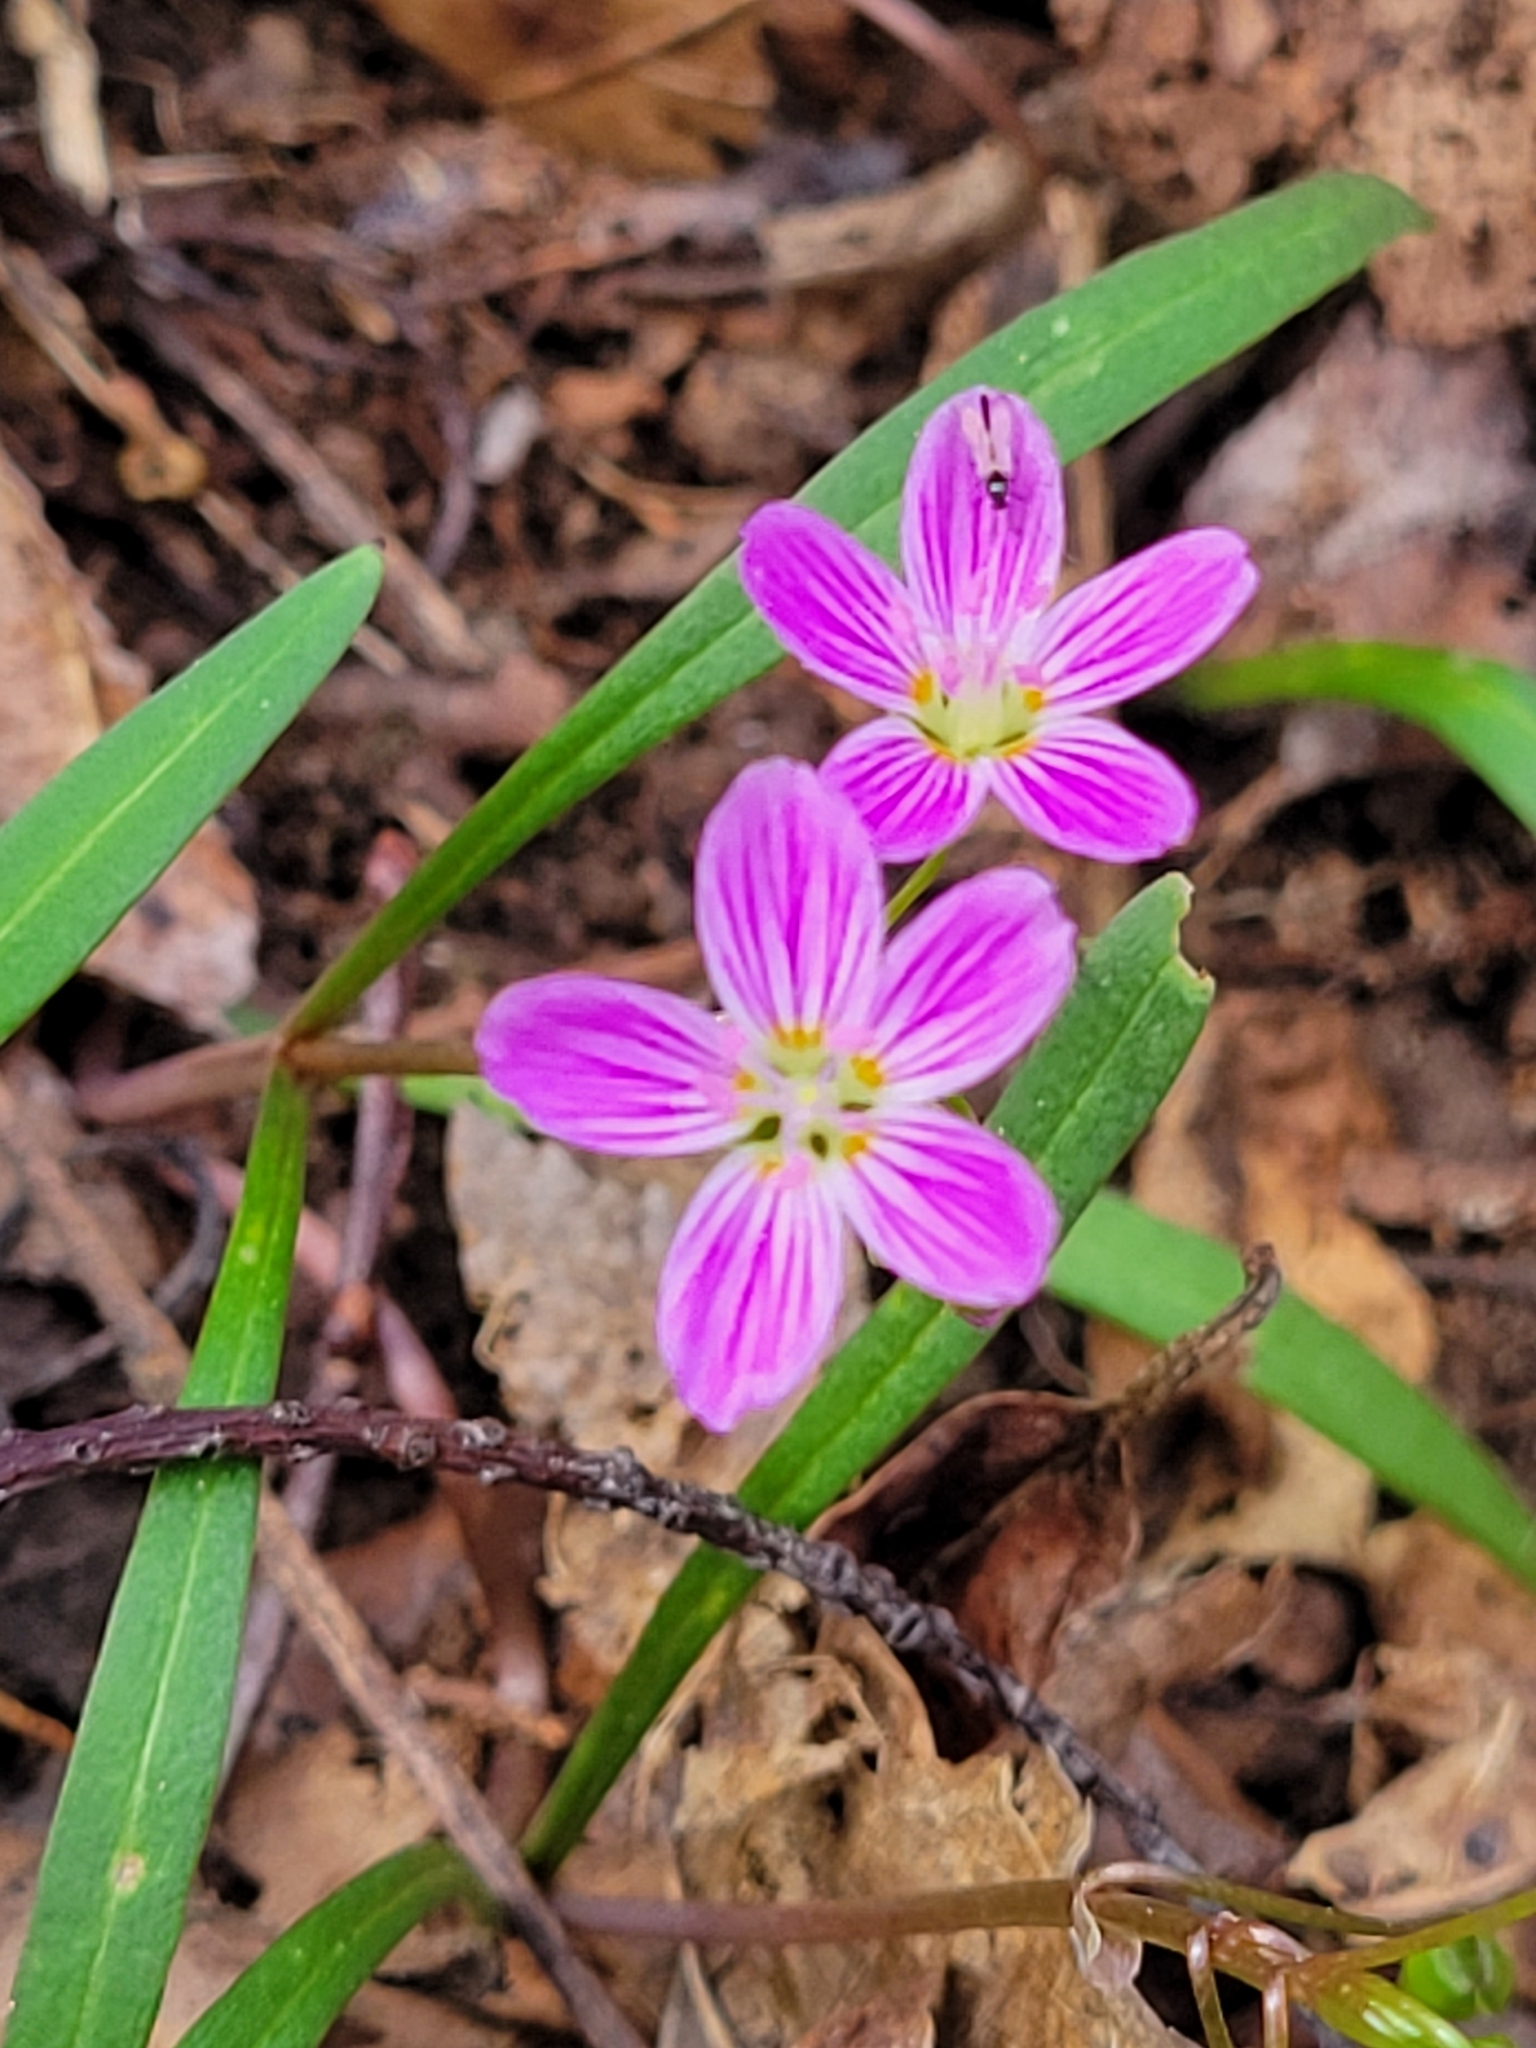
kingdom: Plantae
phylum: Tracheophyta
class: Magnoliopsida
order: Caryophyllales
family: Montiaceae
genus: Claytonia
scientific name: Claytonia virginica
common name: Virginia springbeauty
